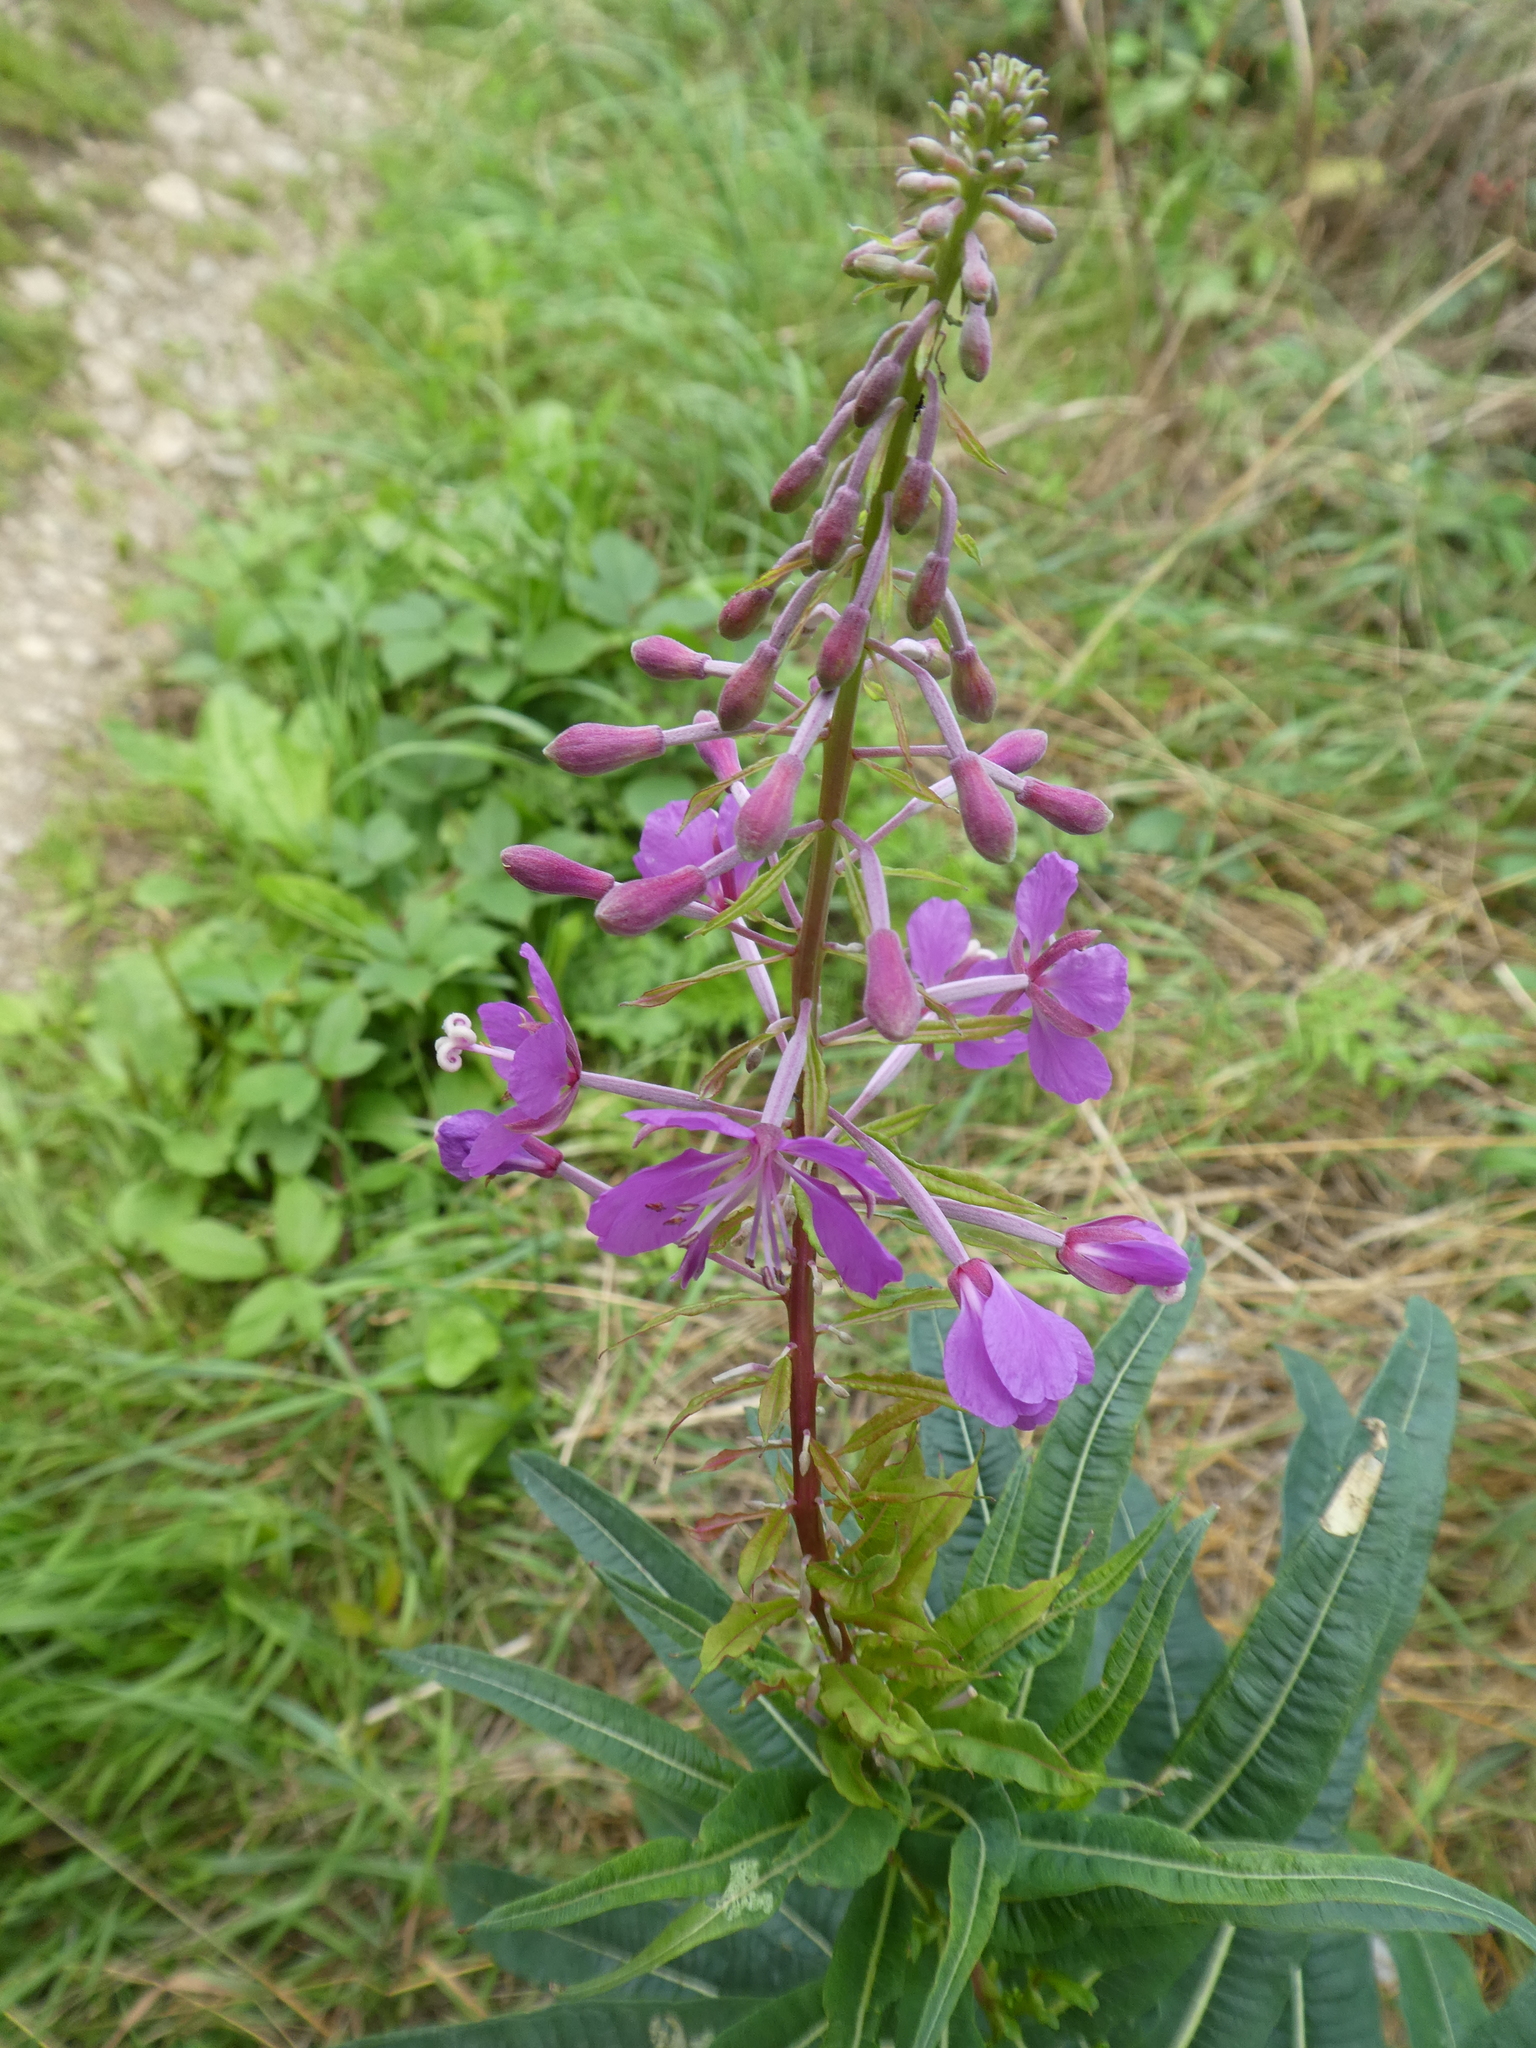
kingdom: Plantae
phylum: Tracheophyta
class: Magnoliopsida
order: Myrtales
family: Onagraceae
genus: Chamaenerion
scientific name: Chamaenerion angustifolium
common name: Fireweed
